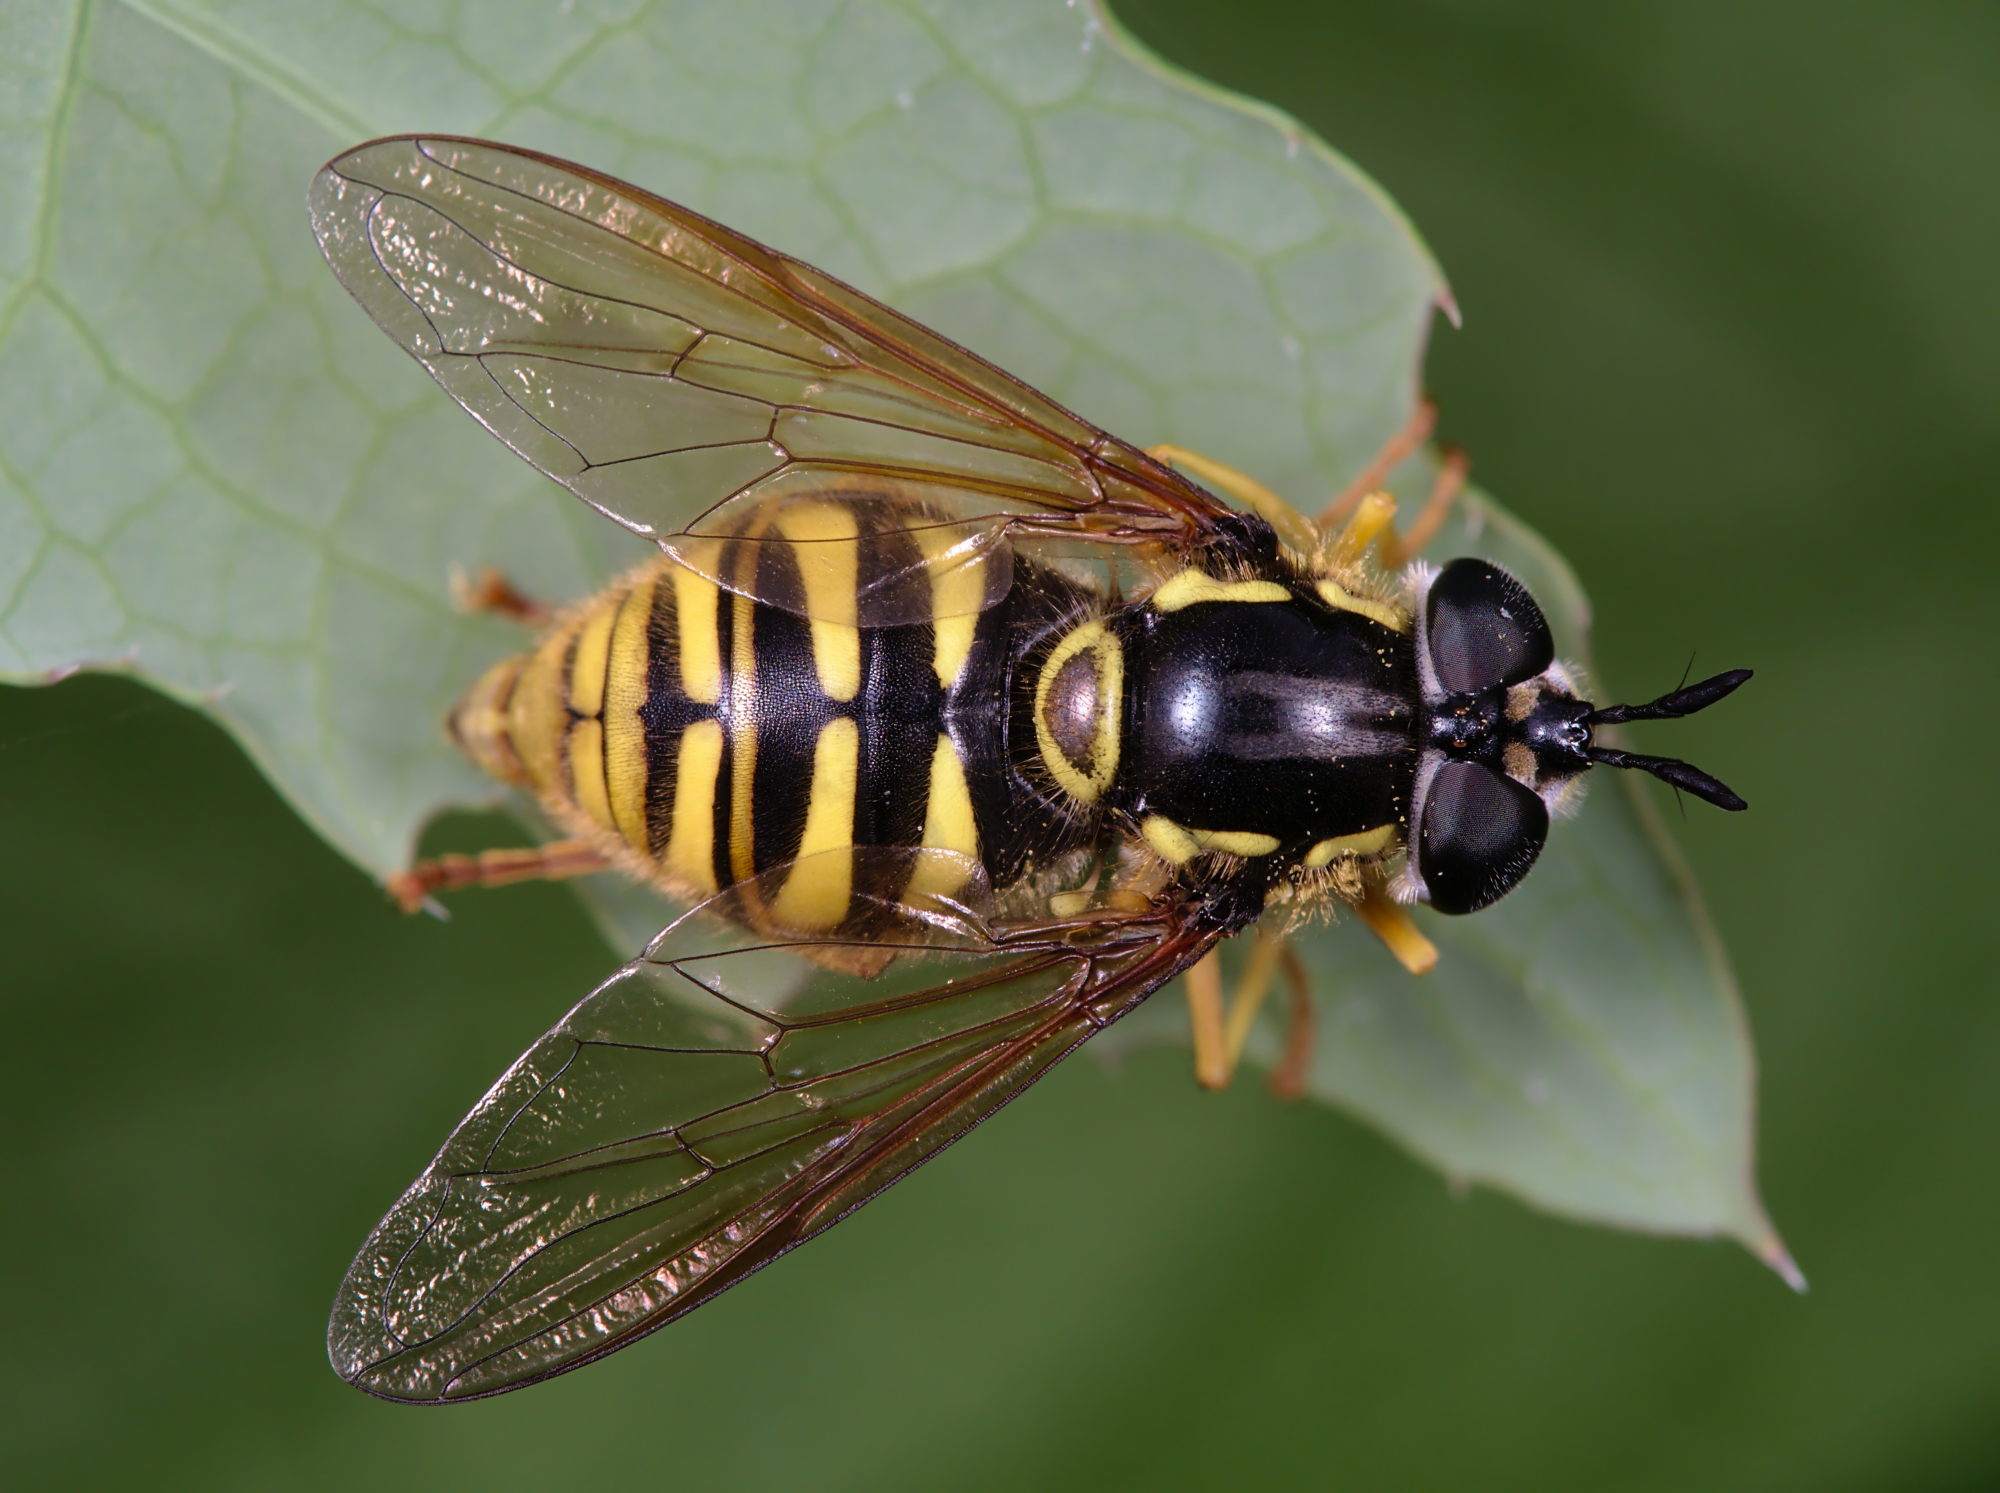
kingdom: Animalia
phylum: Arthropoda
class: Insecta
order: Diptera
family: Syrphidae
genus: Chrysotoxum
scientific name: Chrysotoxum cautum
